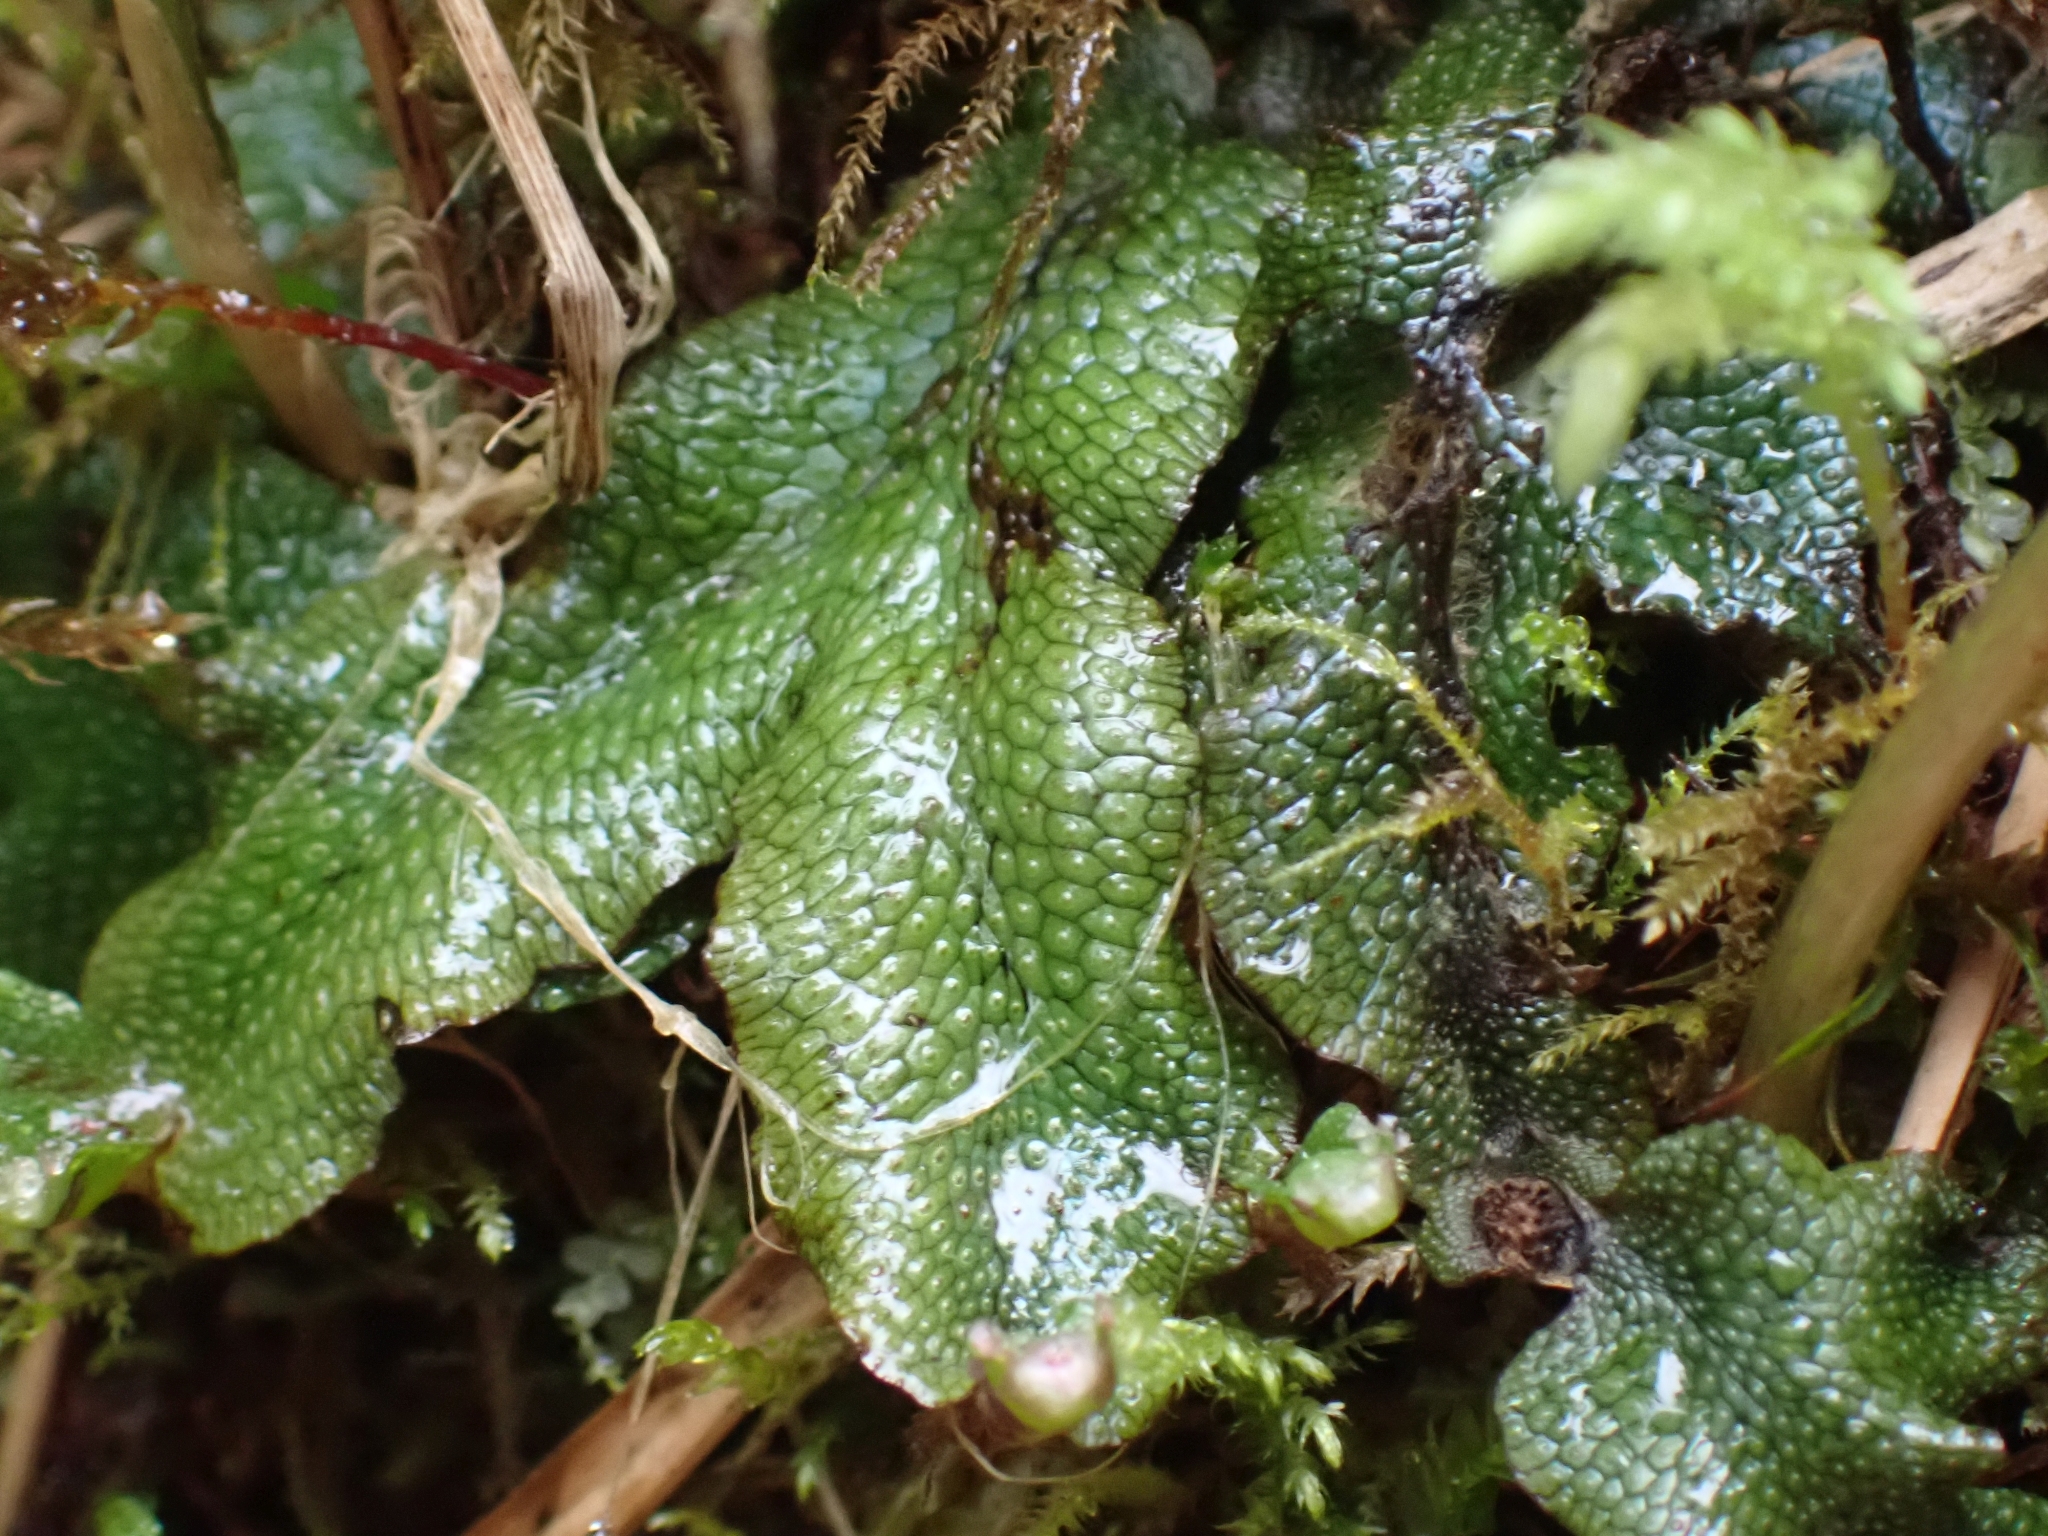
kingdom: Plantae
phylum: Marchantiophyta
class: Marchantiopsida
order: Marchantiales
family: Conocephalaceae
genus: Conocephalum
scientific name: Conocephalum salebrosum
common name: Cat-tongue liverwort
